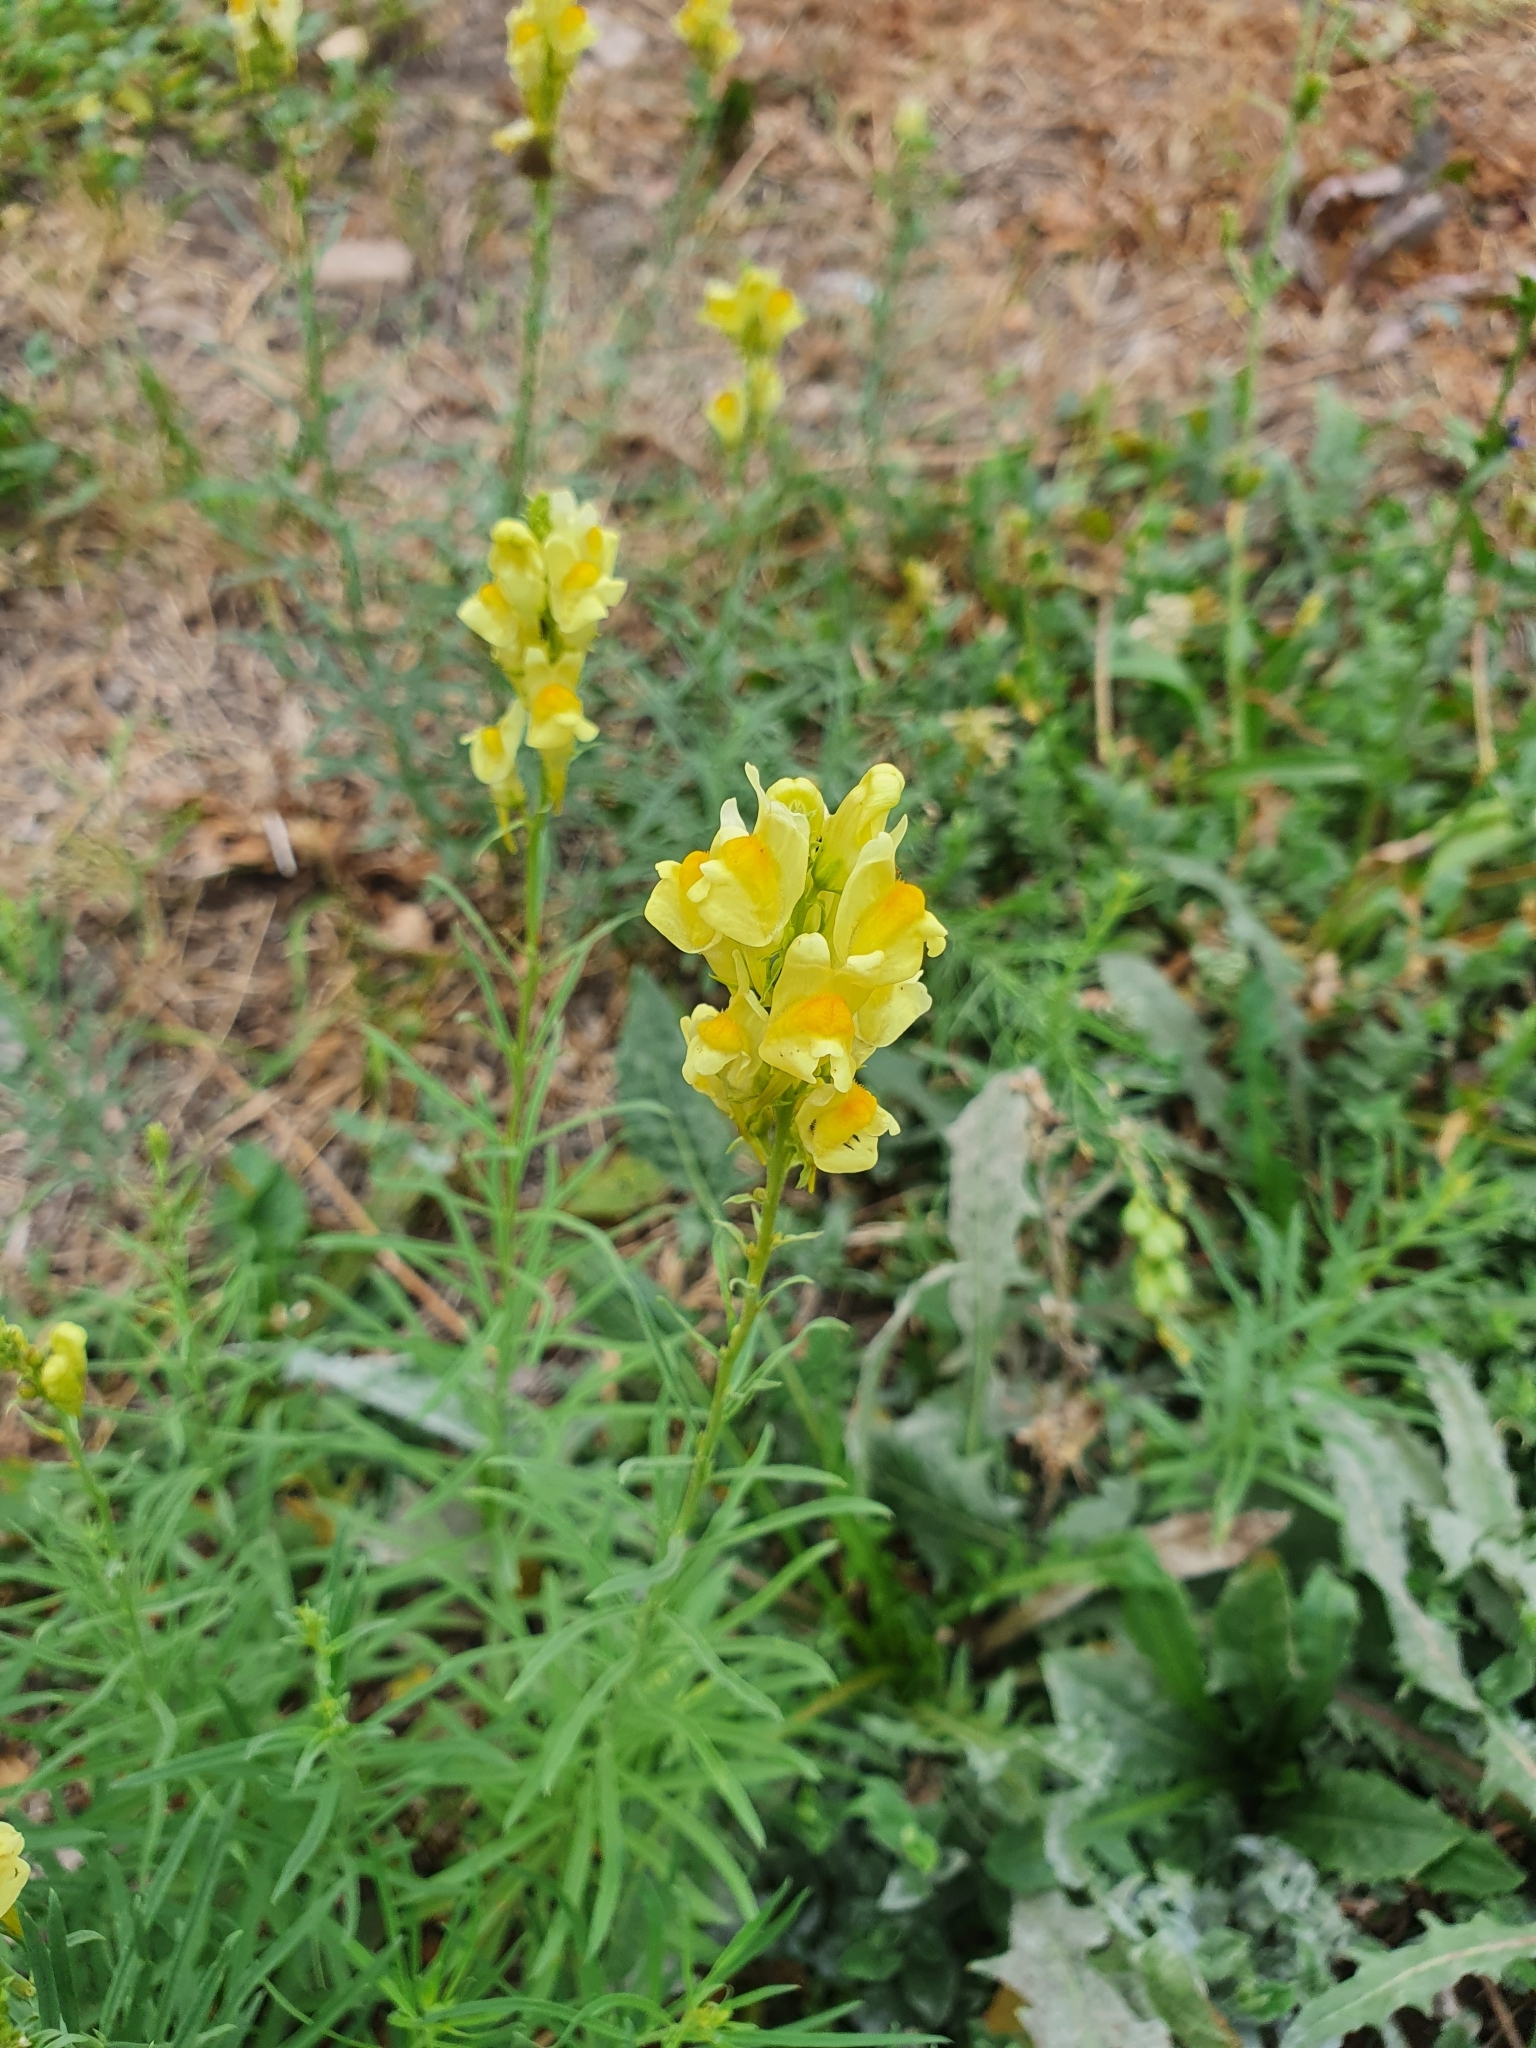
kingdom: Plantae
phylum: Tracheophyta
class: Magnoliopsida
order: Lamiales
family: Plantaginaceae
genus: Linaria
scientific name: Linaria vulgaris
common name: Butter and eggs
